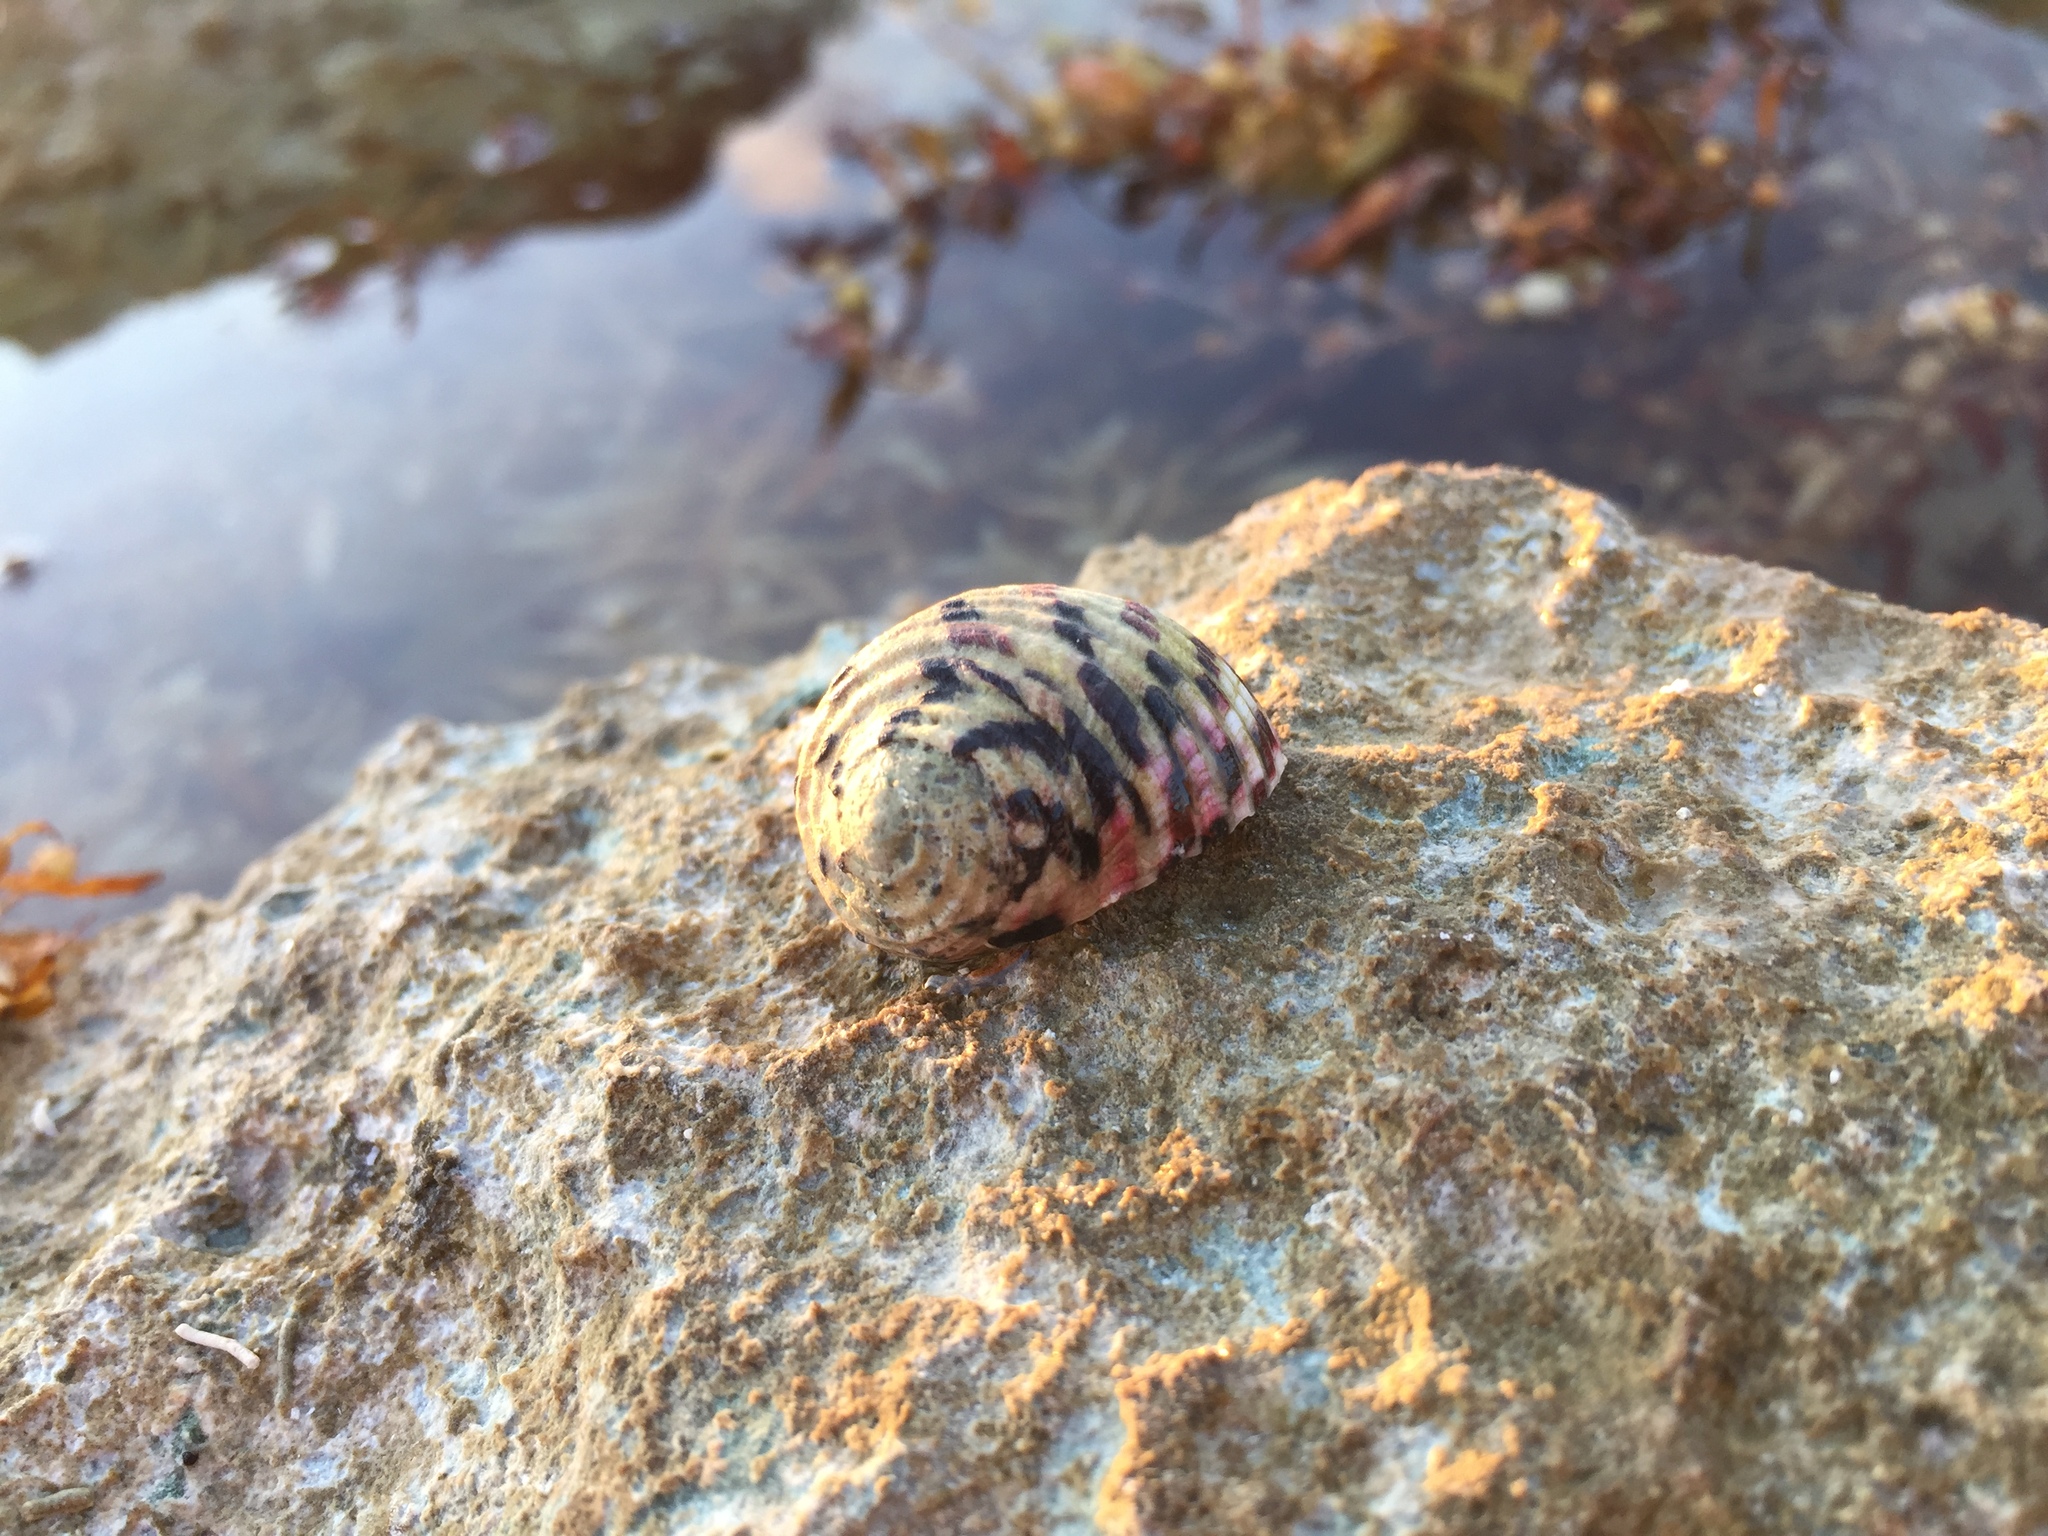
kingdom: Animalia
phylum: Mollusca
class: Gastropoda
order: Cycloneritida
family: Neritidae
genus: Nerita
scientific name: Nerita versicolor
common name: Four-tooth nerite
